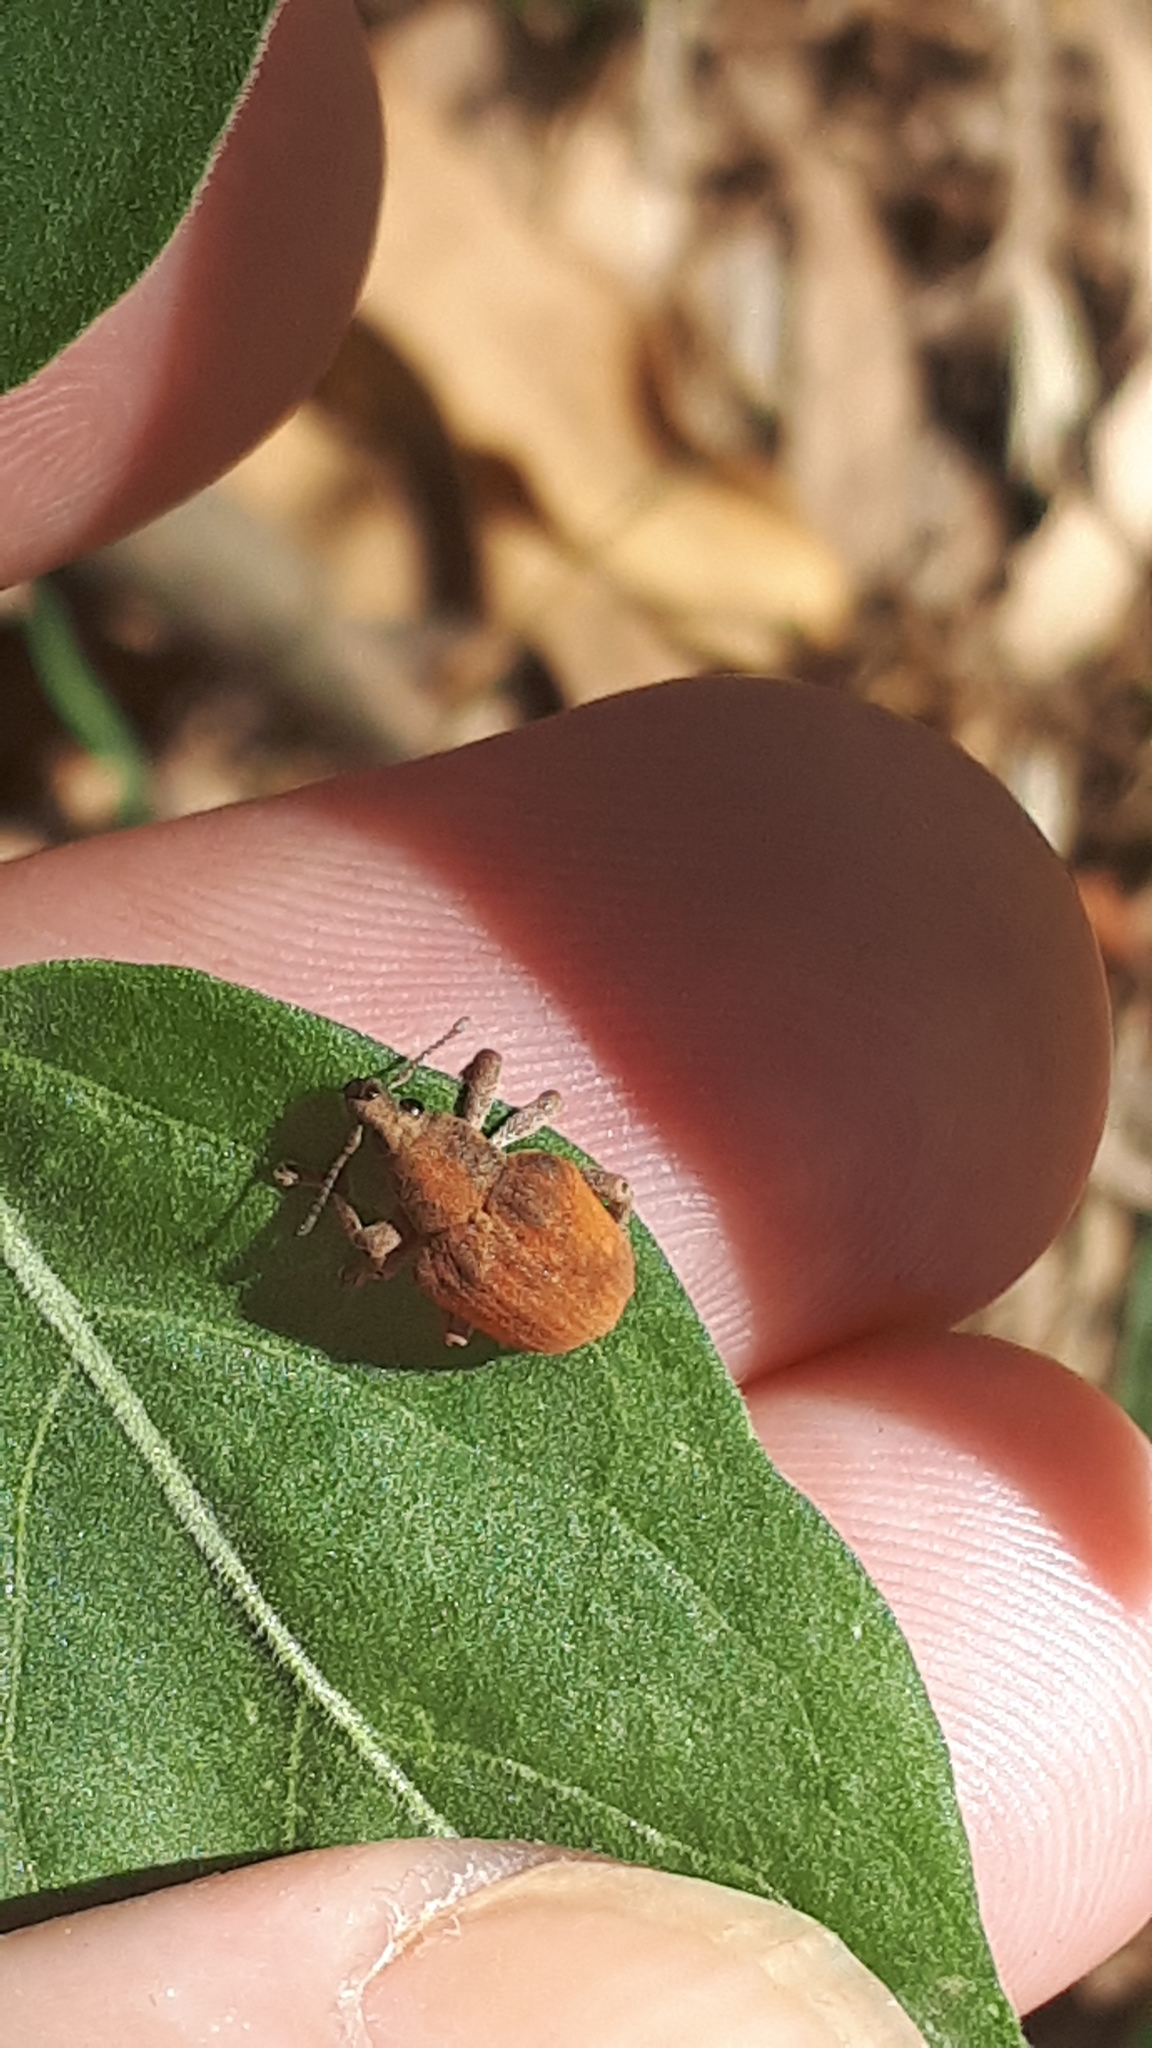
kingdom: Animalia
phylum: Arthropoda
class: Insecta
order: Coleoptera
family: Curculionidae
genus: Gonipterus
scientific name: Gonipterus platensis
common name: Eucalyptus snout beetle
